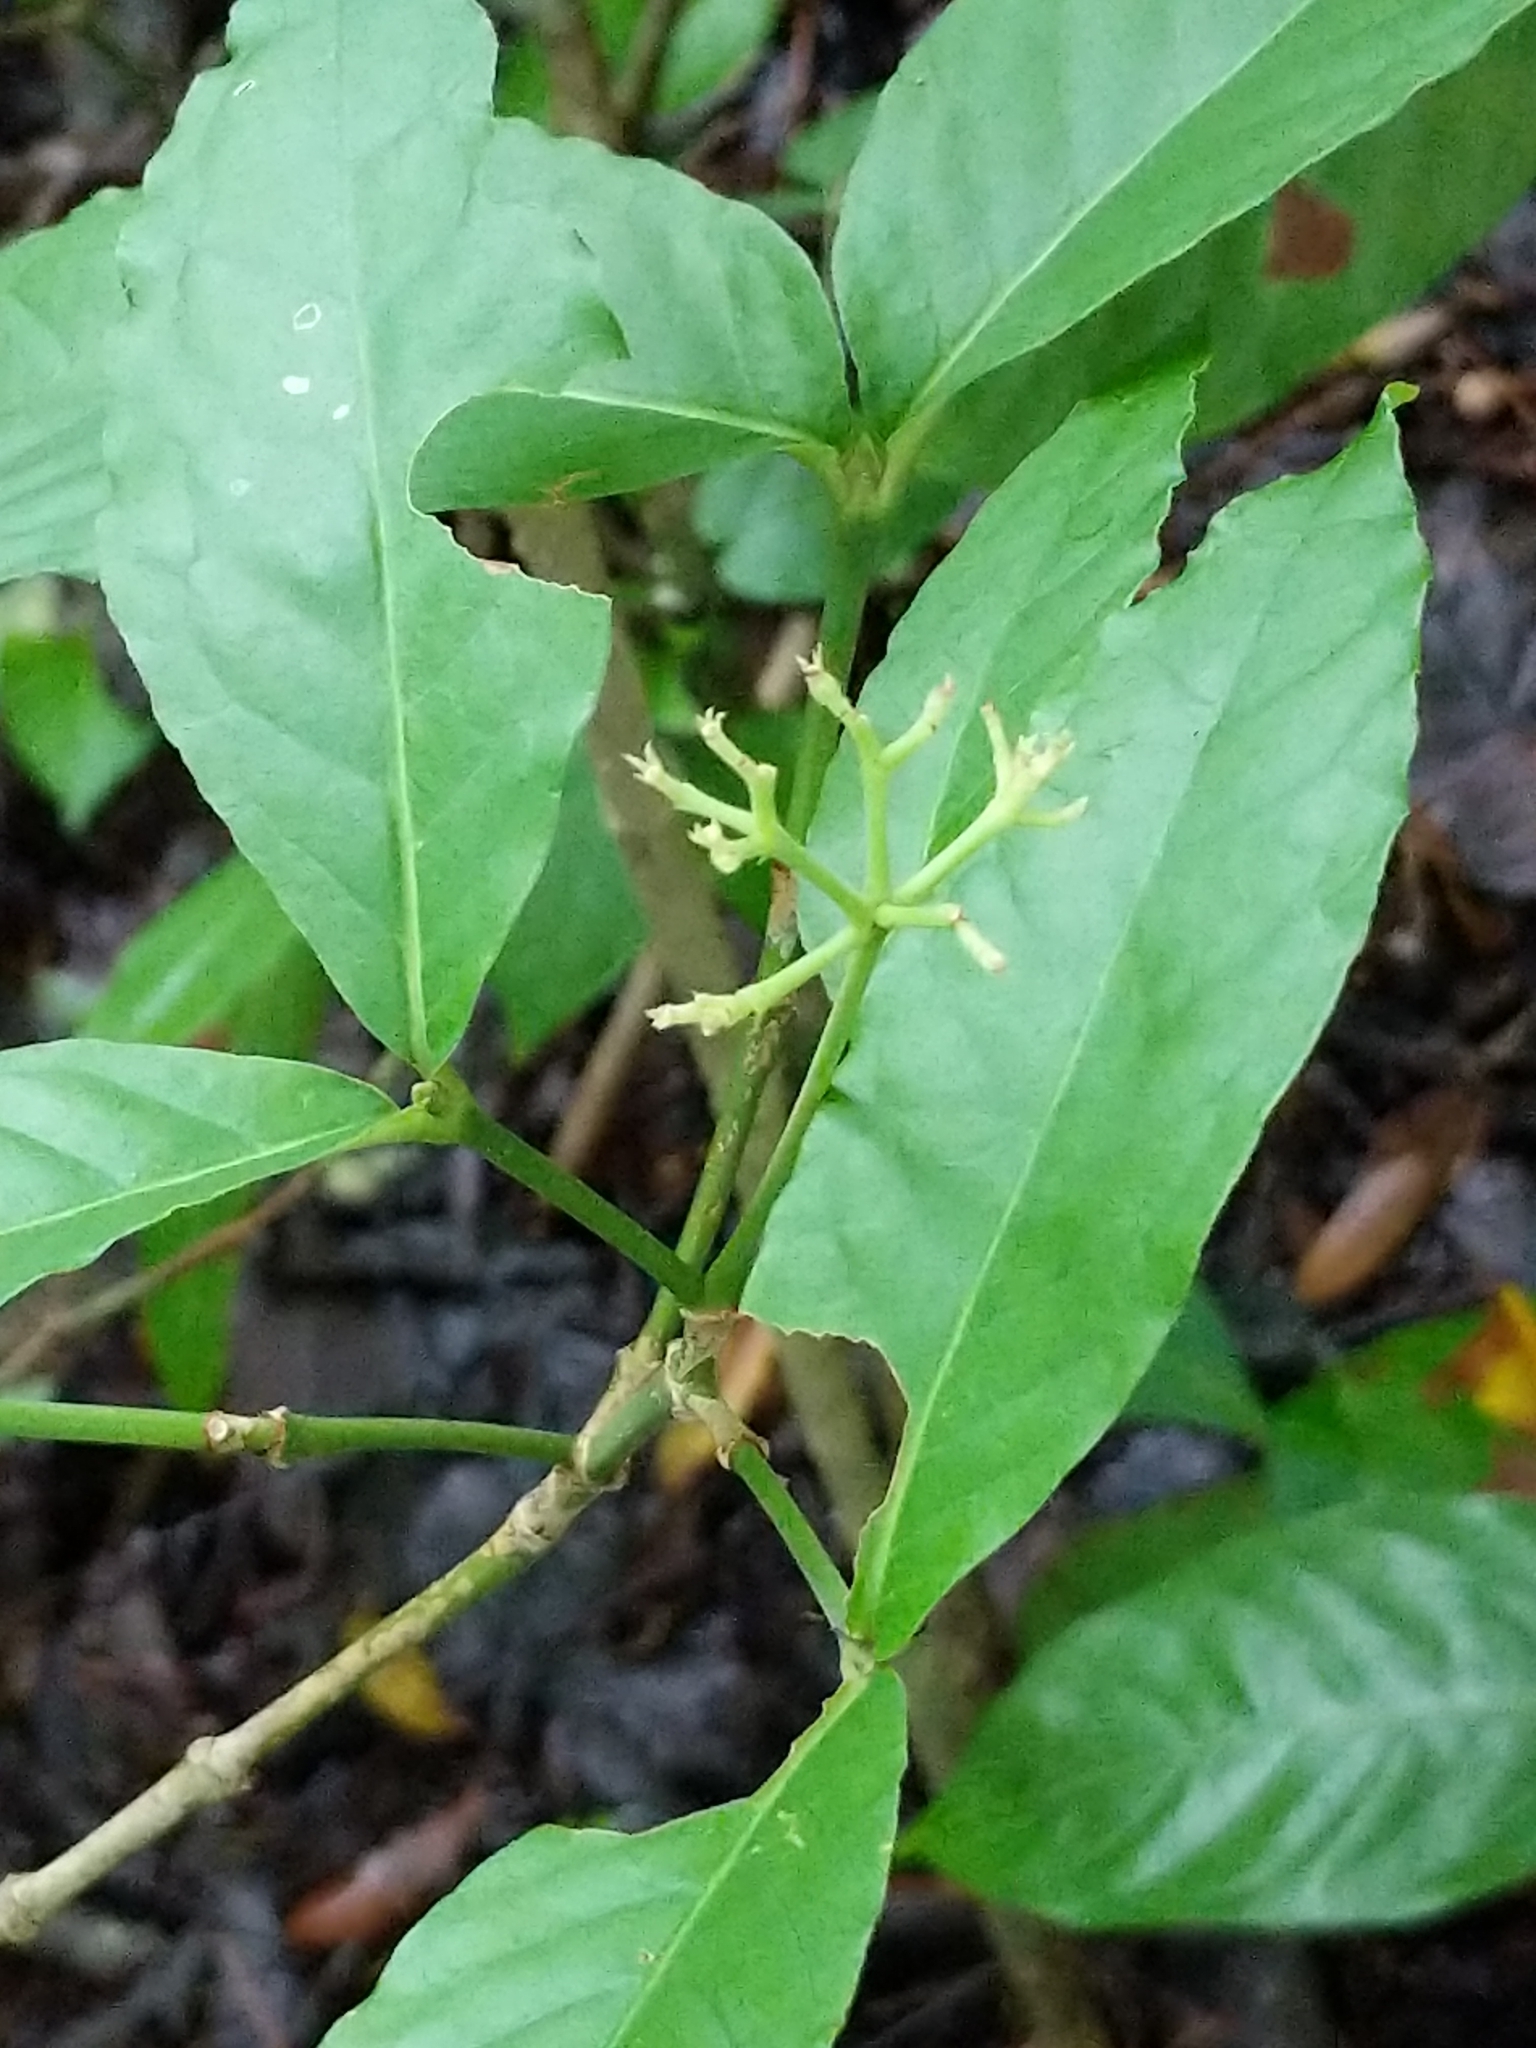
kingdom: Plantae
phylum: Tracheophyta
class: Magnoliopsida
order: Gentianales
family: Rubiaceae
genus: Psychotria
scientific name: Psychotria horizontalis
